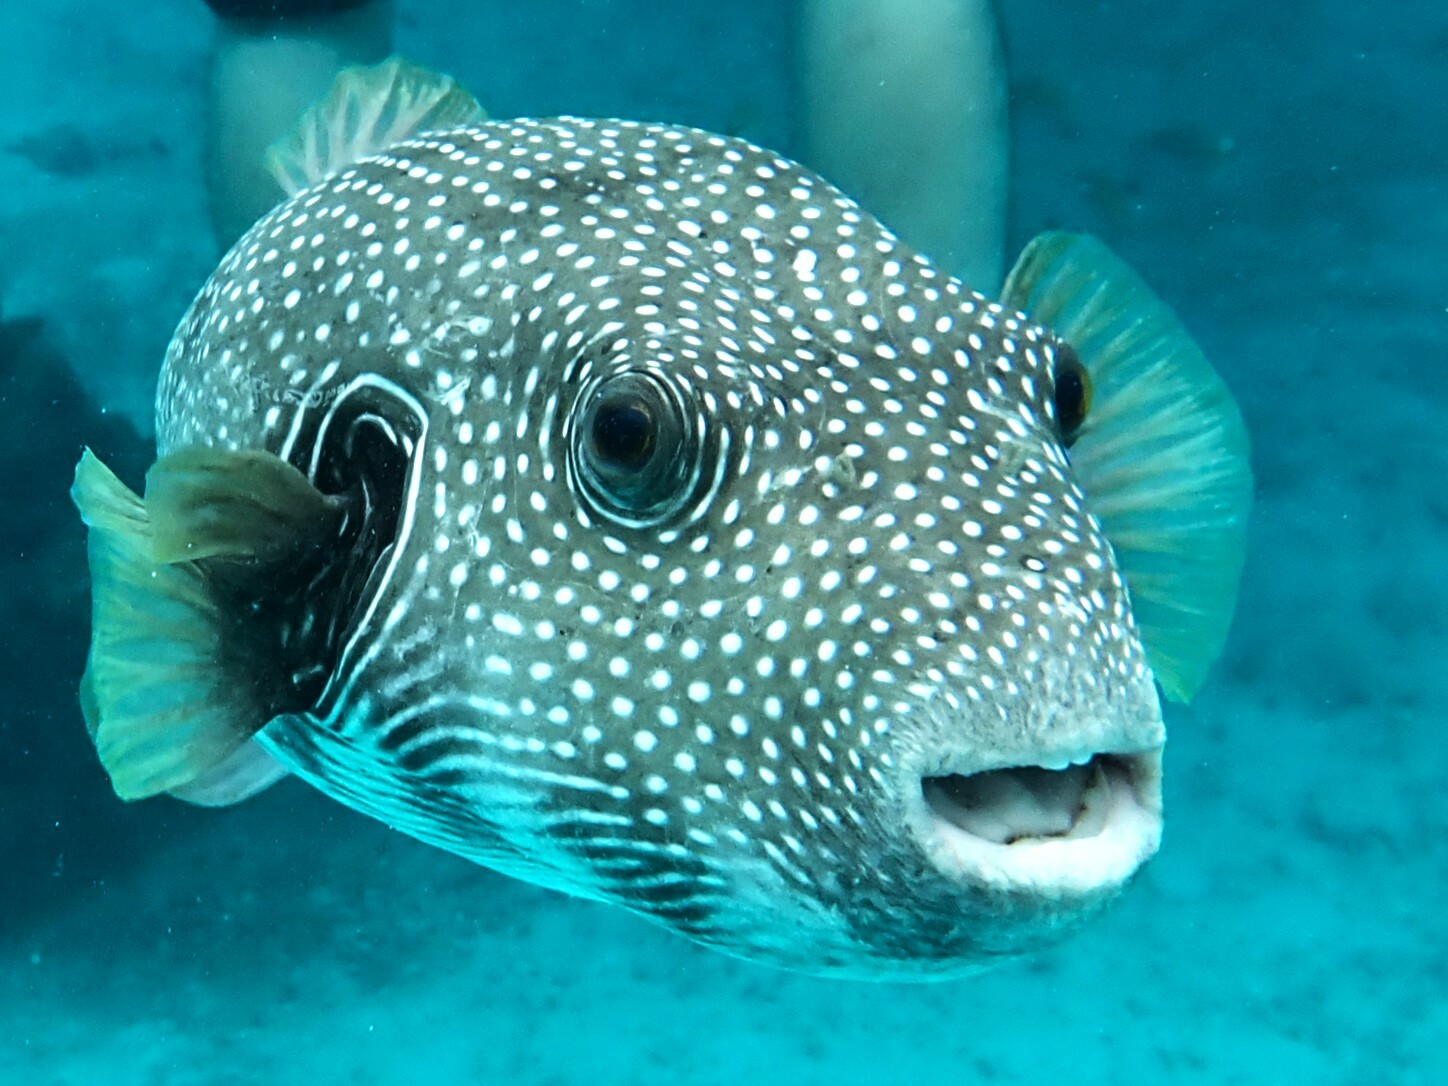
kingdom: Animalia
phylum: Chordata
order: Tetraodontiformes
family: Tetraodontidae
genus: Arothron
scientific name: Arothron hispidus
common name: Stripebelly puffer
